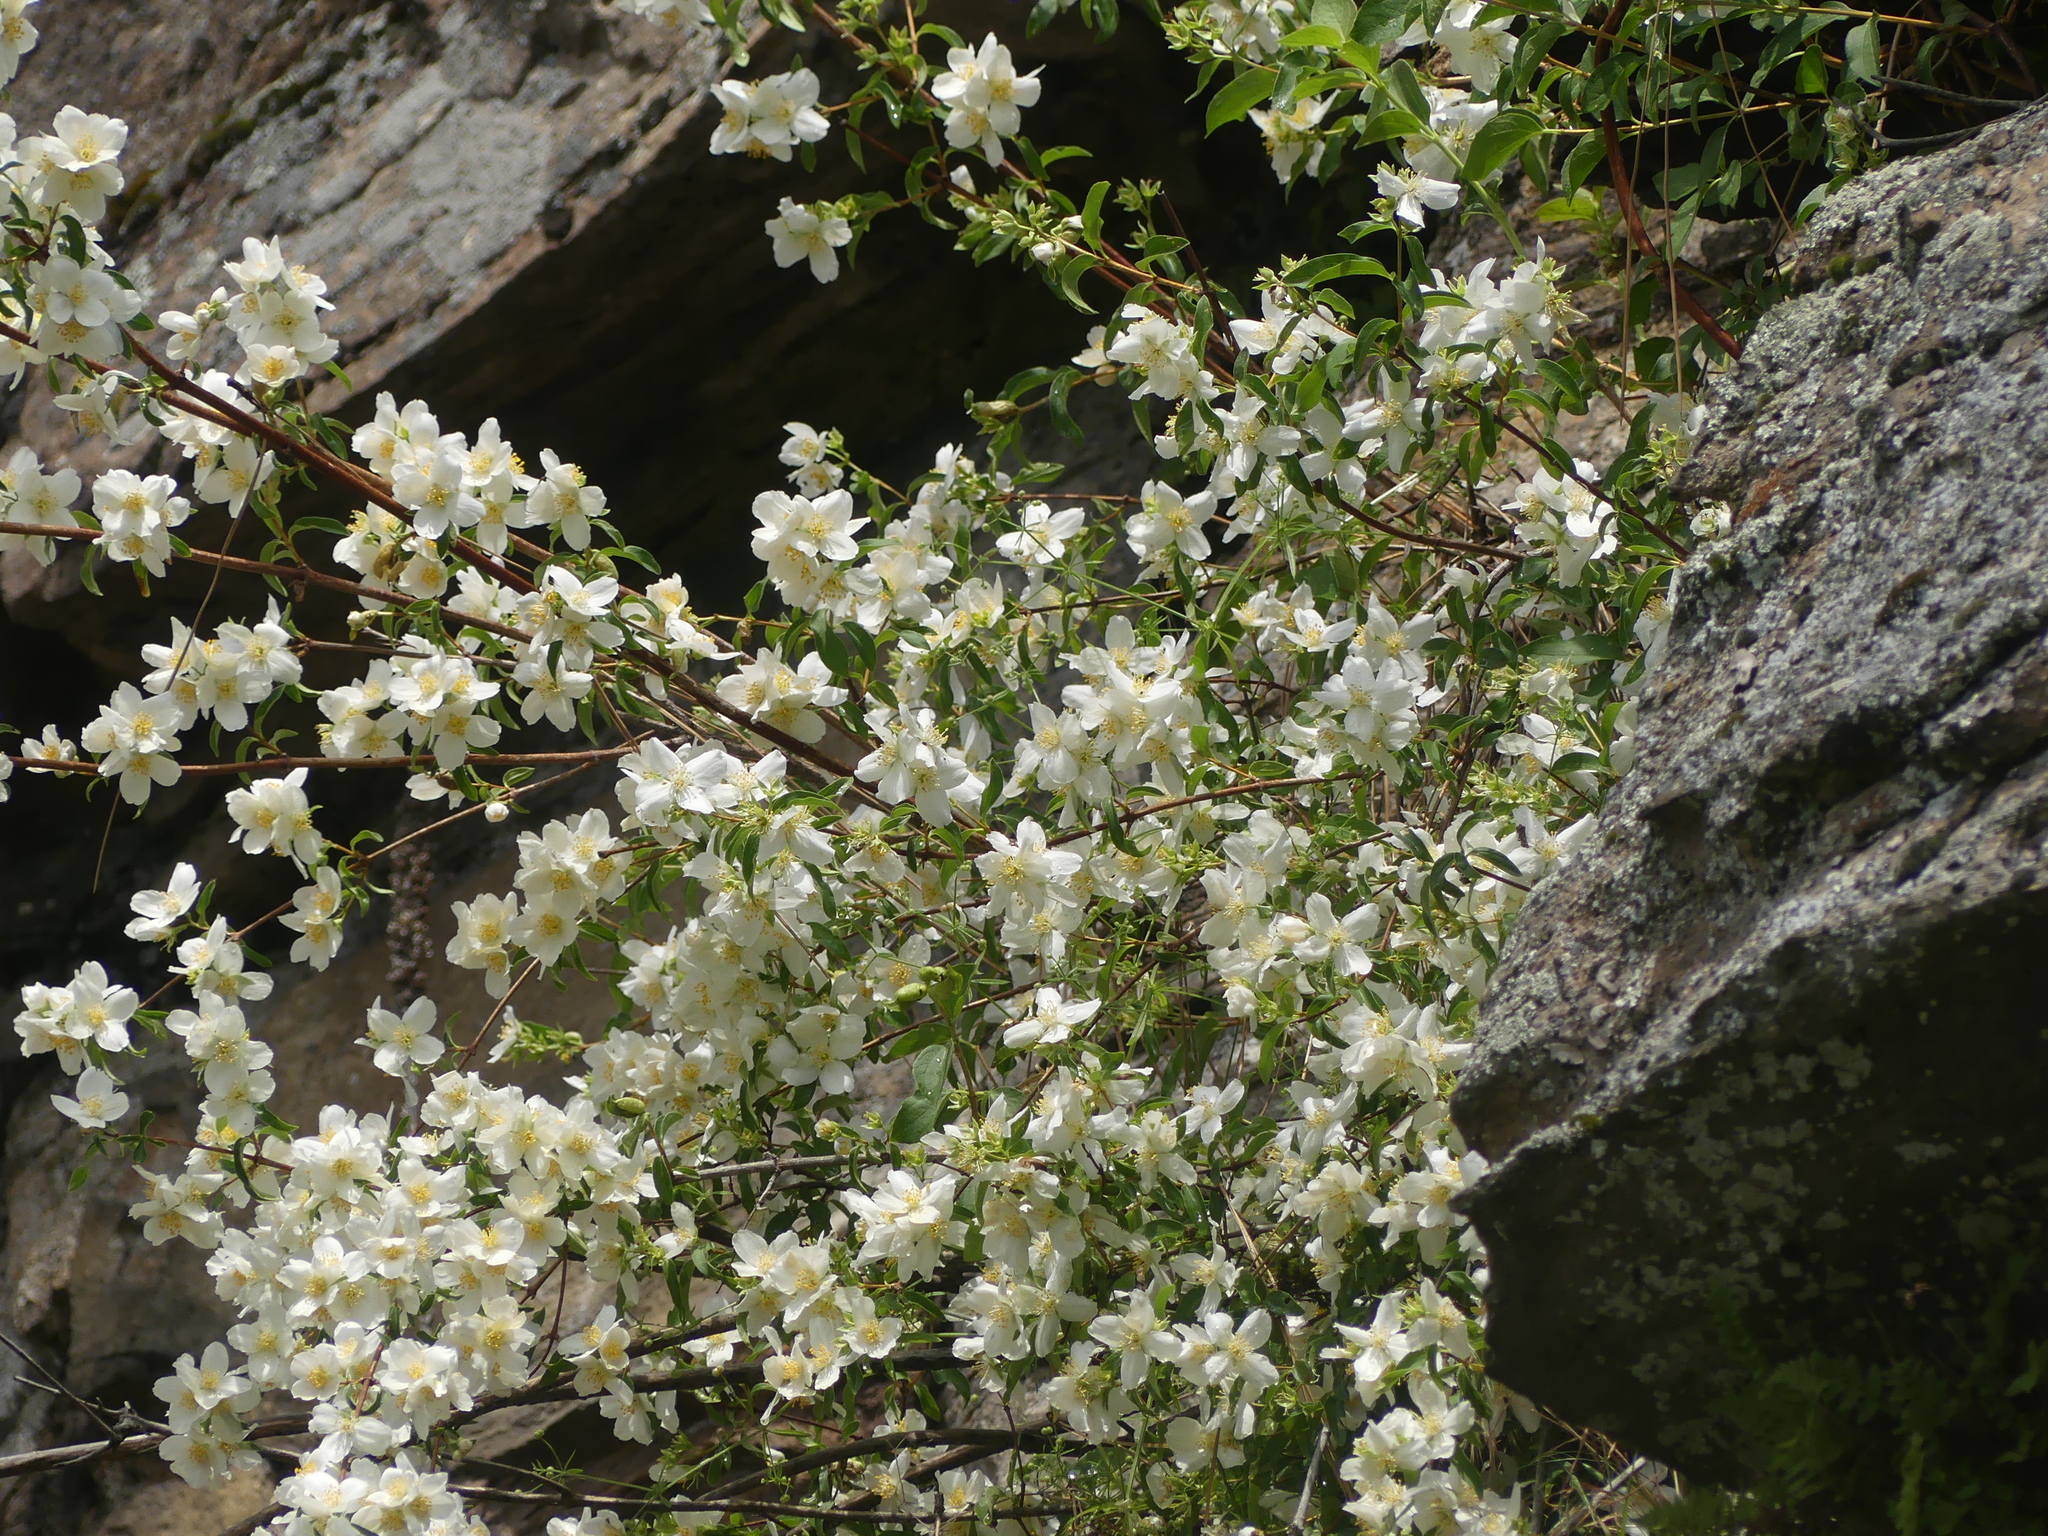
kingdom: Plantae
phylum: Tracheophyta
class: Magnoliopsida
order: Cornales
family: Hydrangeaceae
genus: Philadelphus
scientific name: Philadelphus lewisii
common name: Lewis's mock orange
